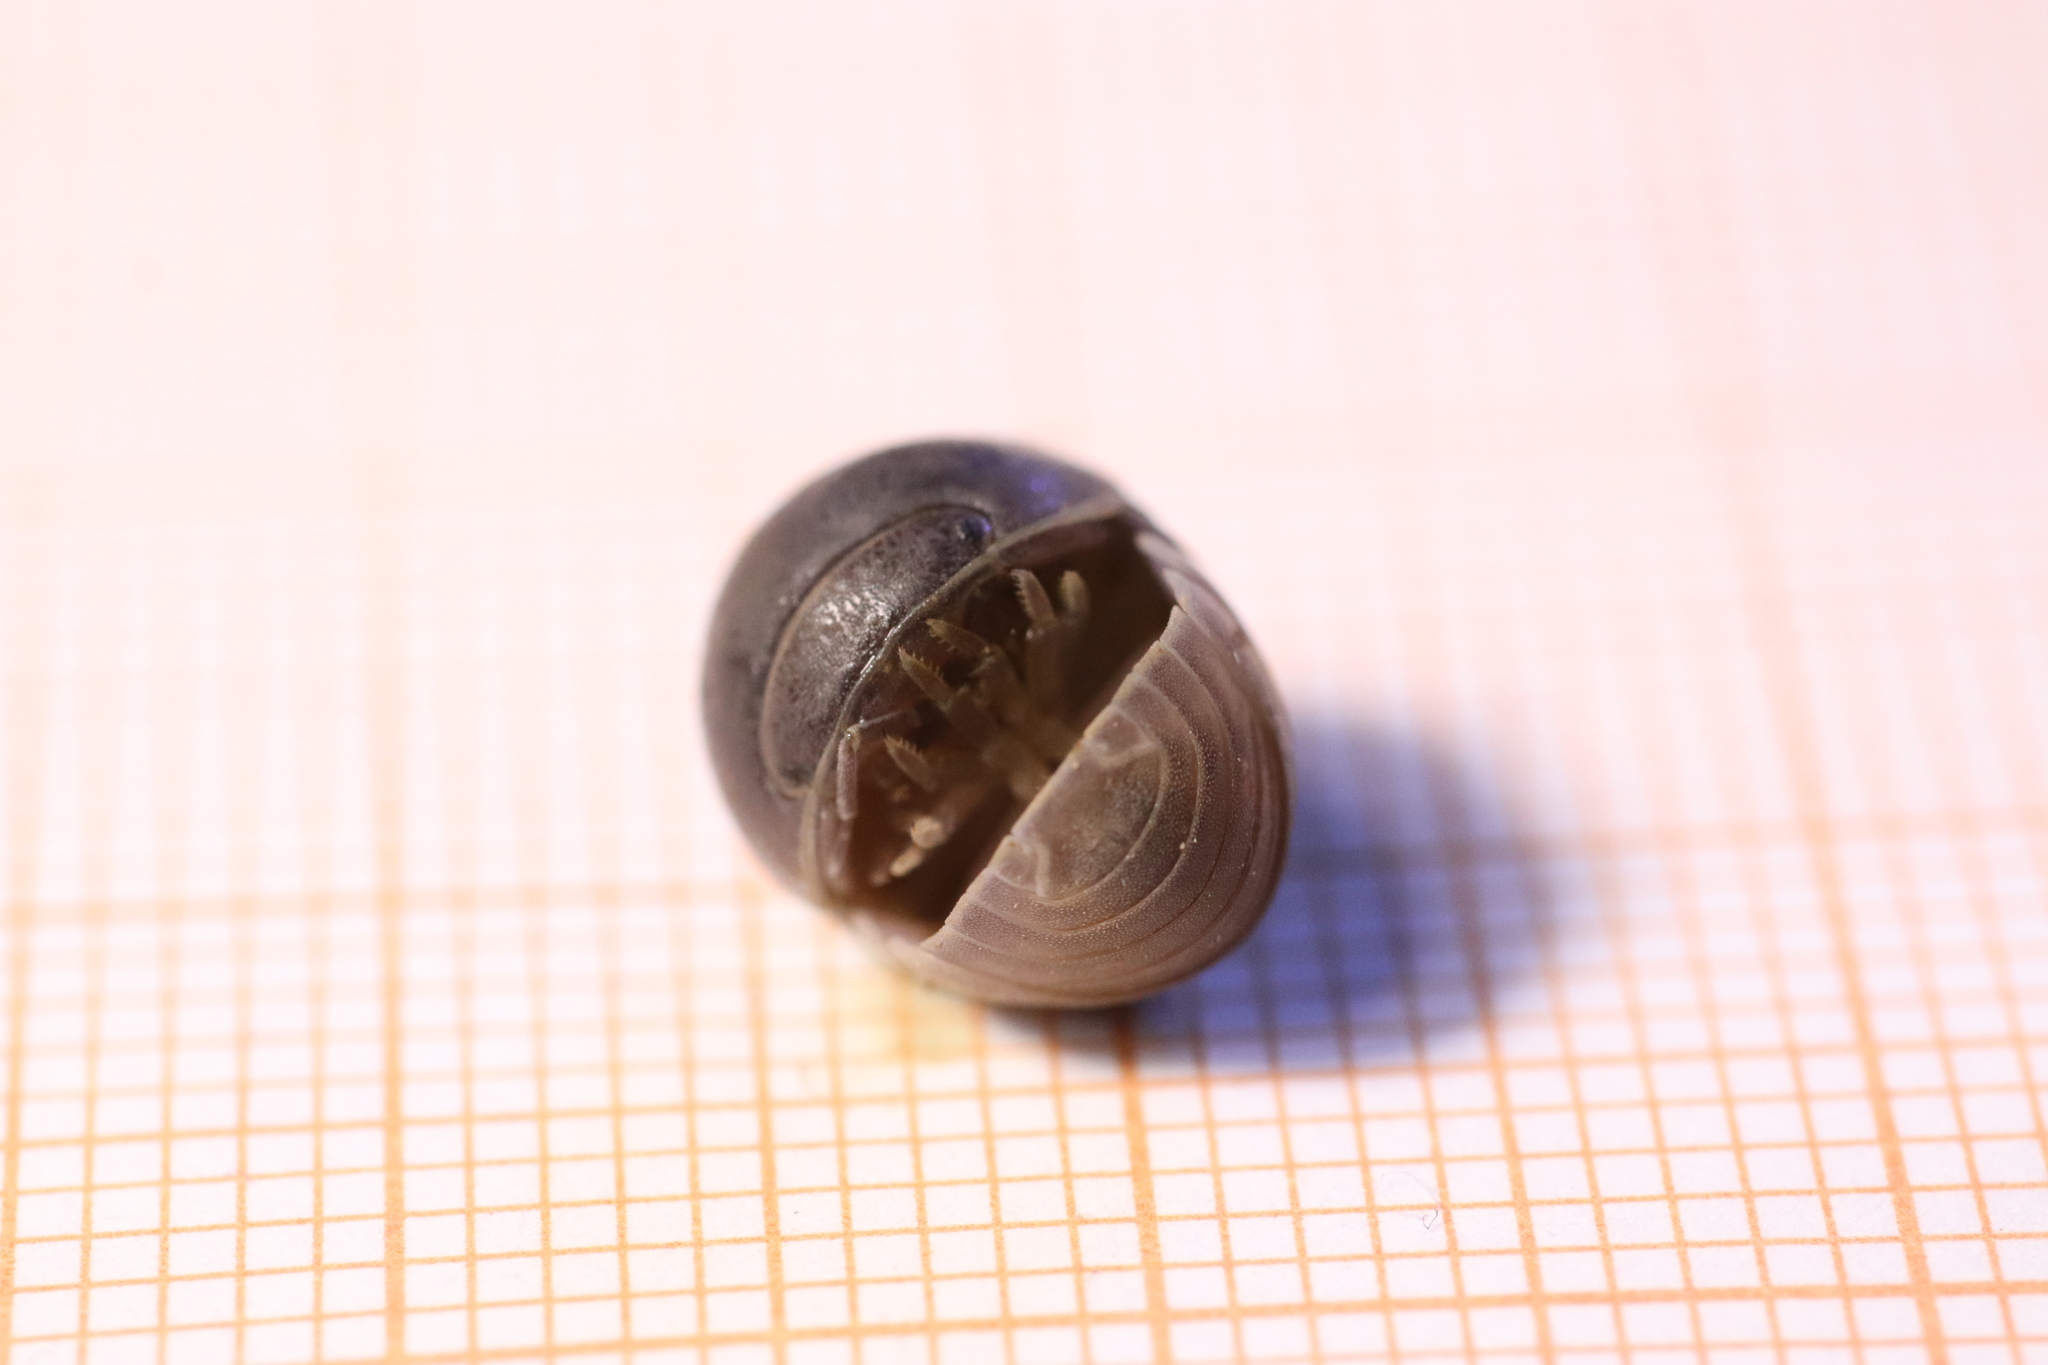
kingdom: Animalia
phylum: Arthropoda
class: Malacostraca
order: Isopoda
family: Armadillidae
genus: Armadillo
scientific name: Armadillo officinalis
